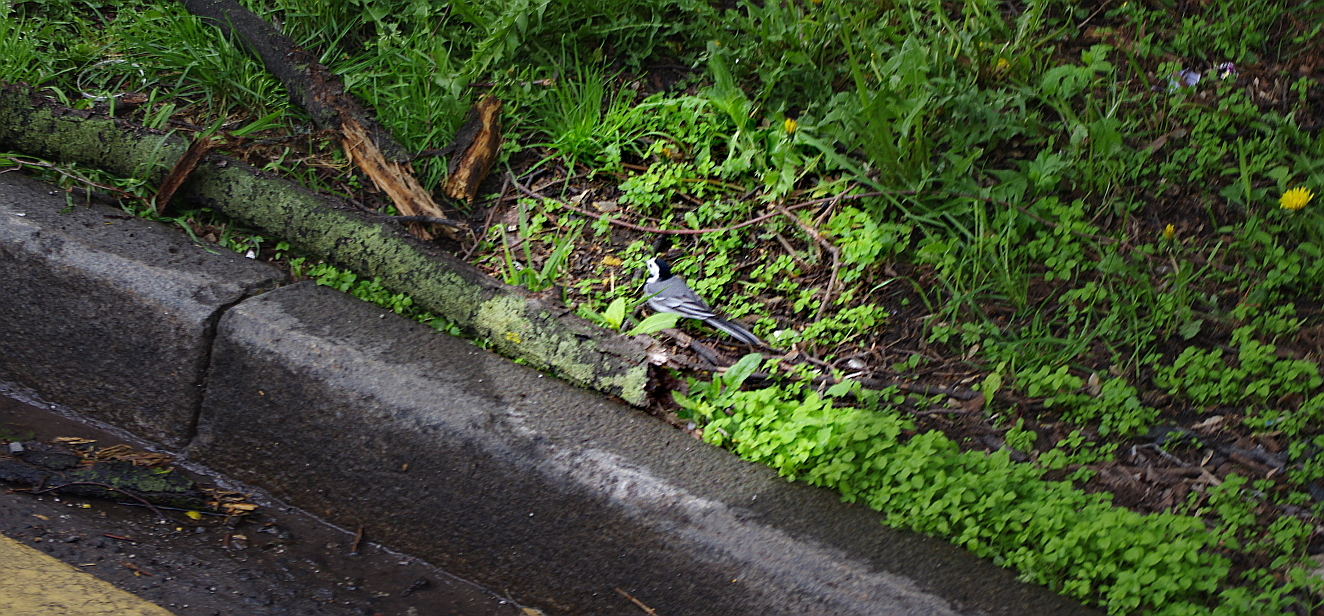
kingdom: Animalia
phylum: Chordata
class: Aves
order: Passeriformes
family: Motacillidae
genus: Motacilla
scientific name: Motacilla alba
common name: White wagtail
